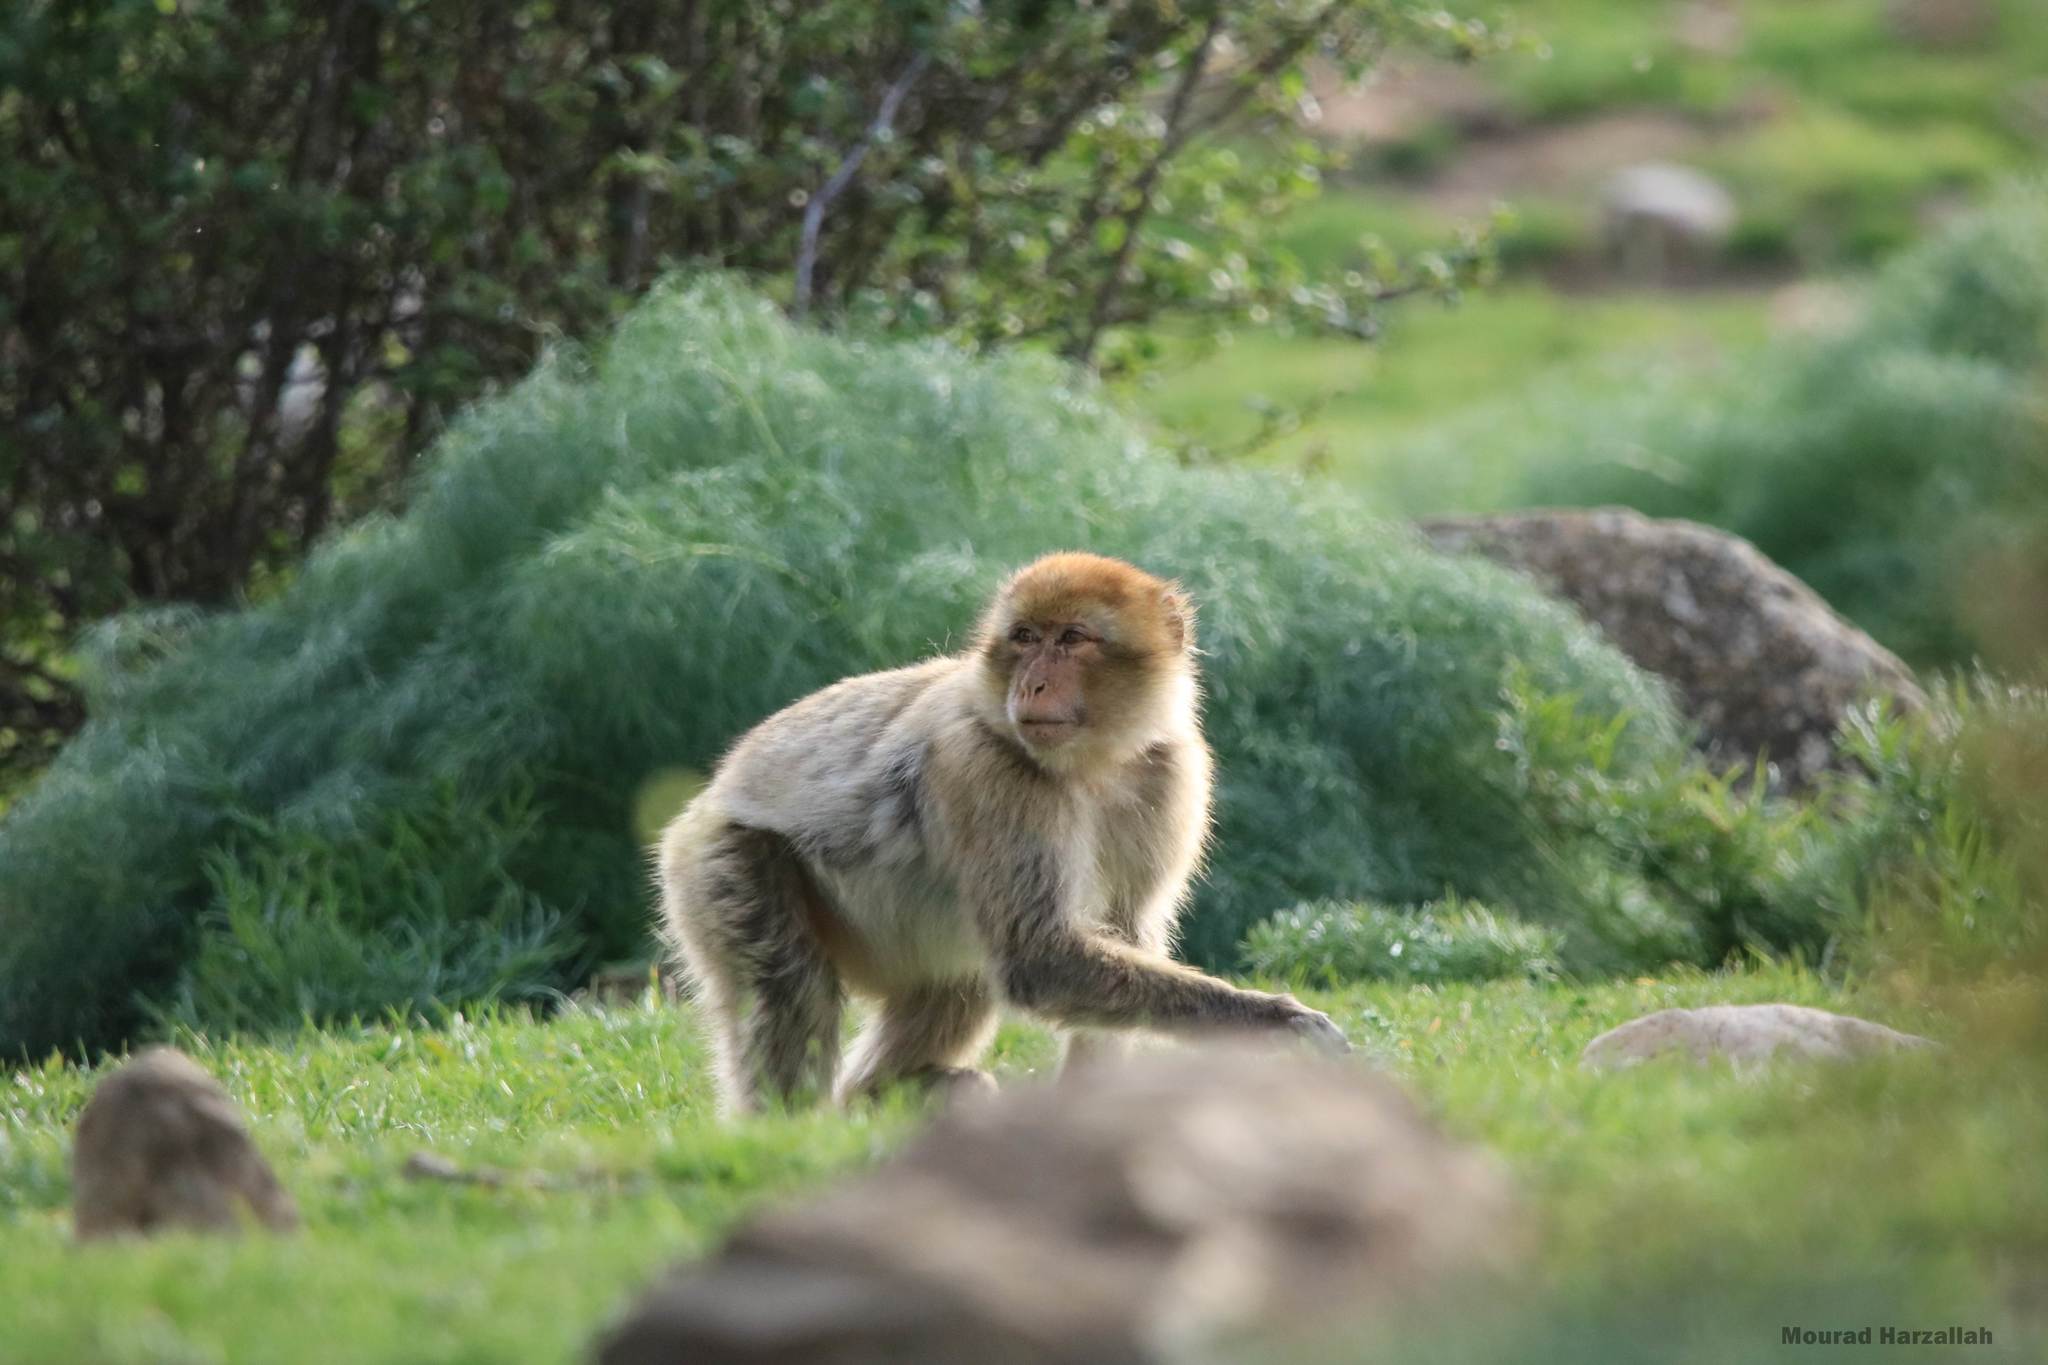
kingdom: Animalia
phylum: Chordata
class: Mammalia
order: Primates
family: Cercopithecidae
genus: Macaca
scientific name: Macaca sylvanus
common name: Barbary macaque
